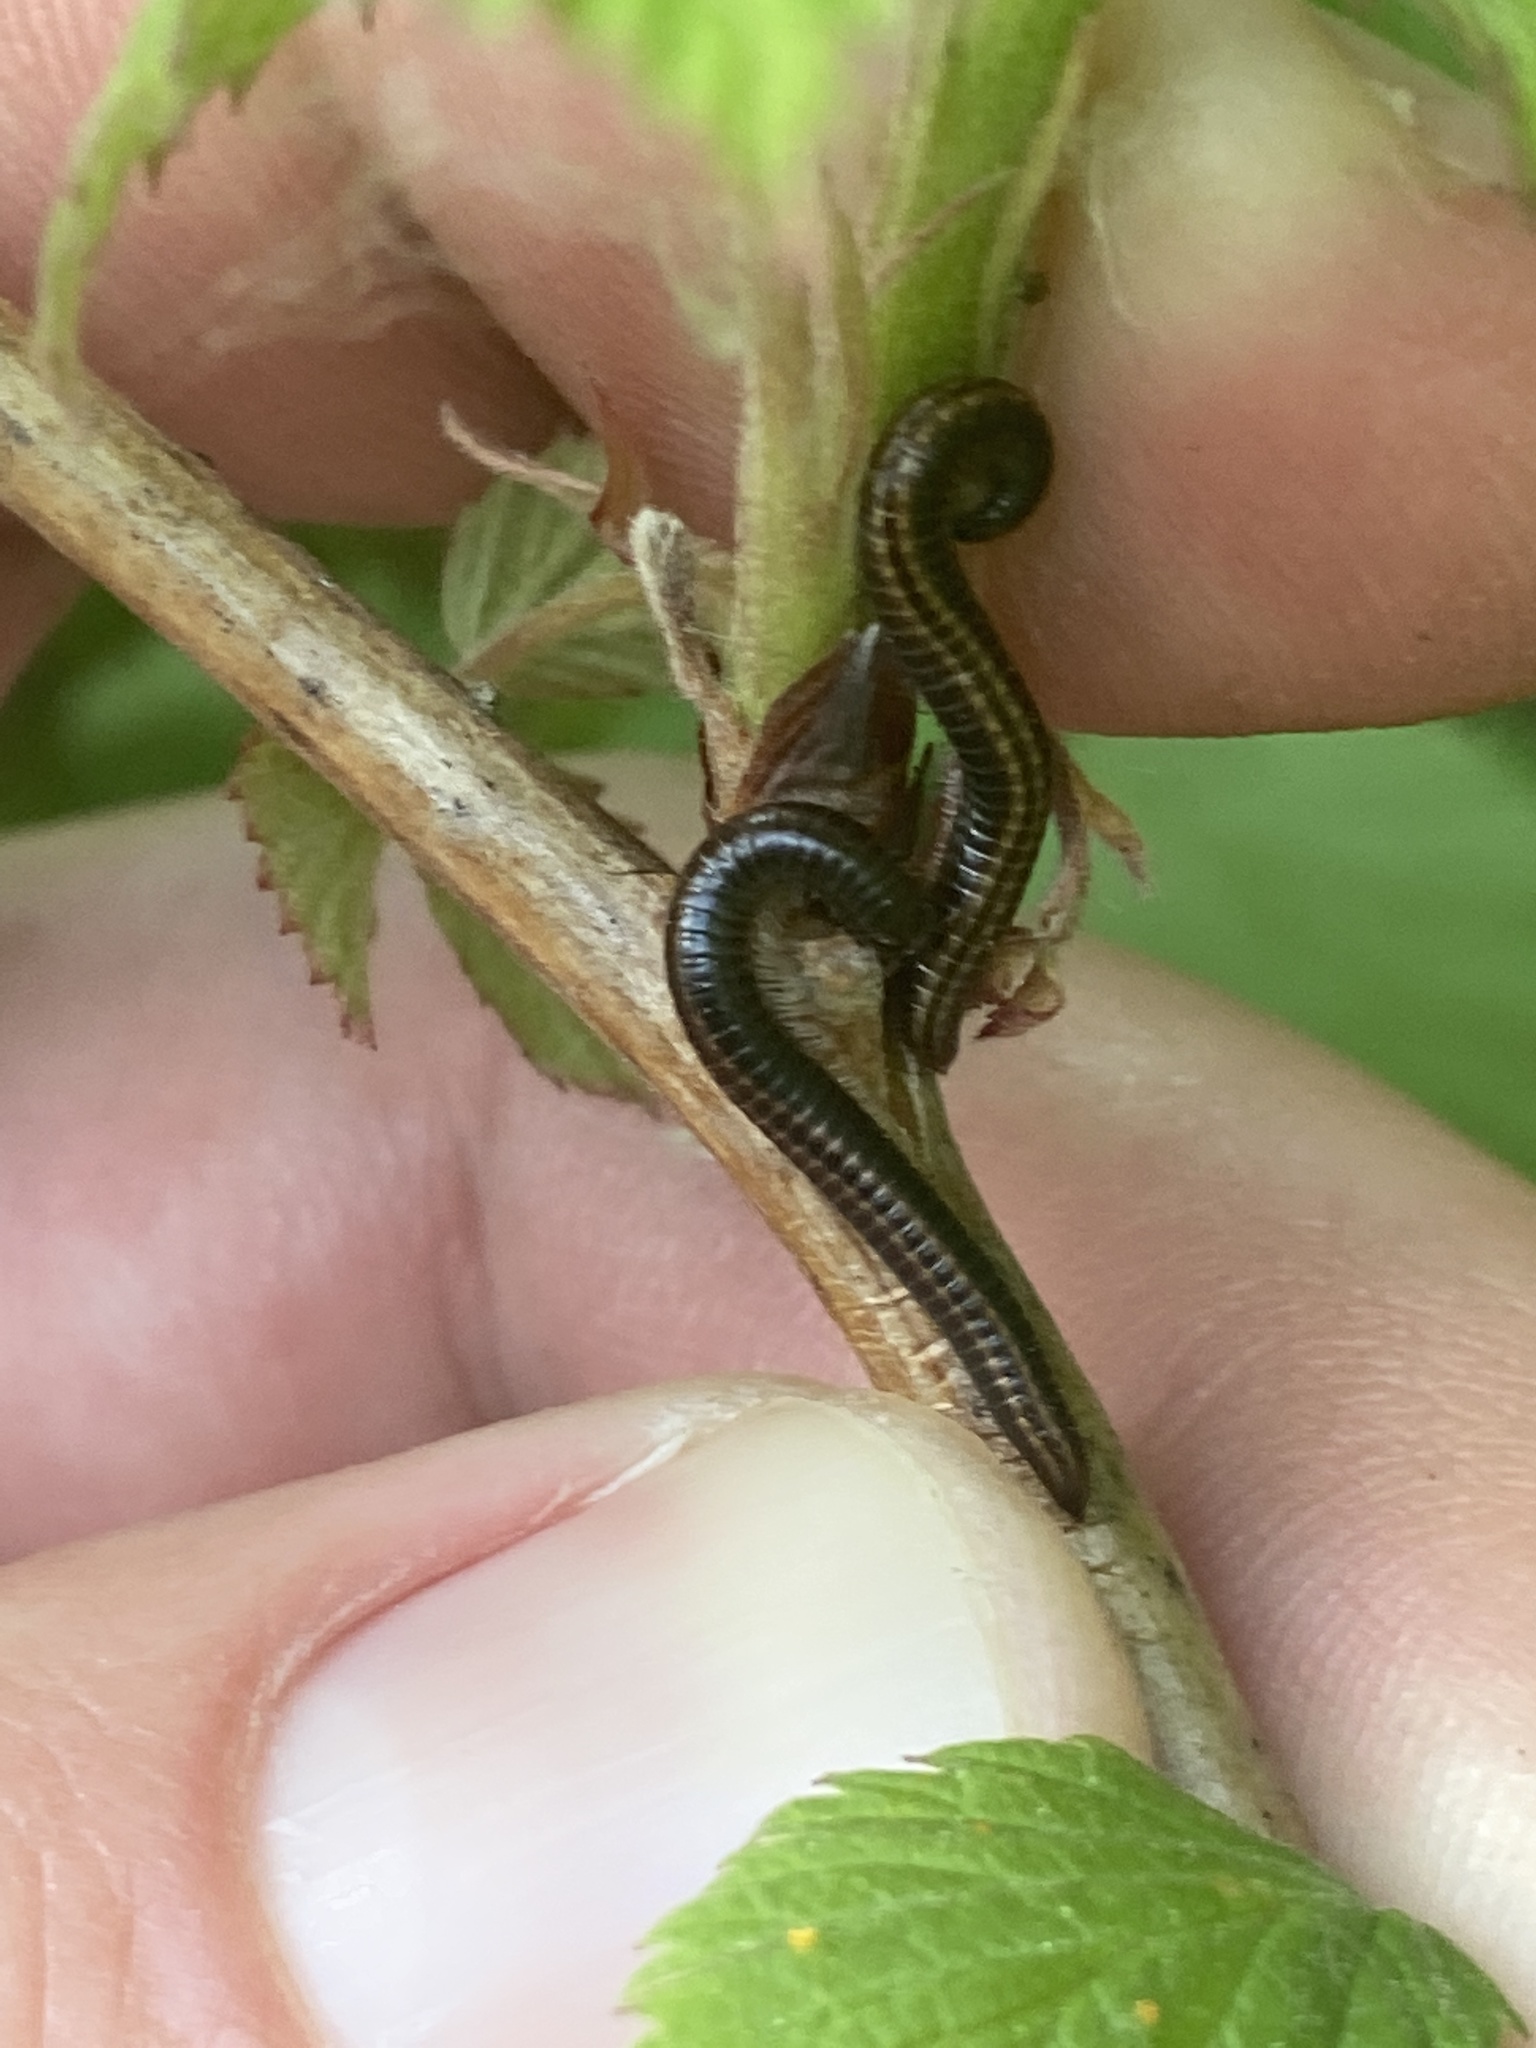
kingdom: Animalia
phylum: Arthropoda
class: Diplopoda
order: Julida
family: Julidae
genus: Ommatoiulus
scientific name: Ommatoiulus sabulosus
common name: Striped millipede
